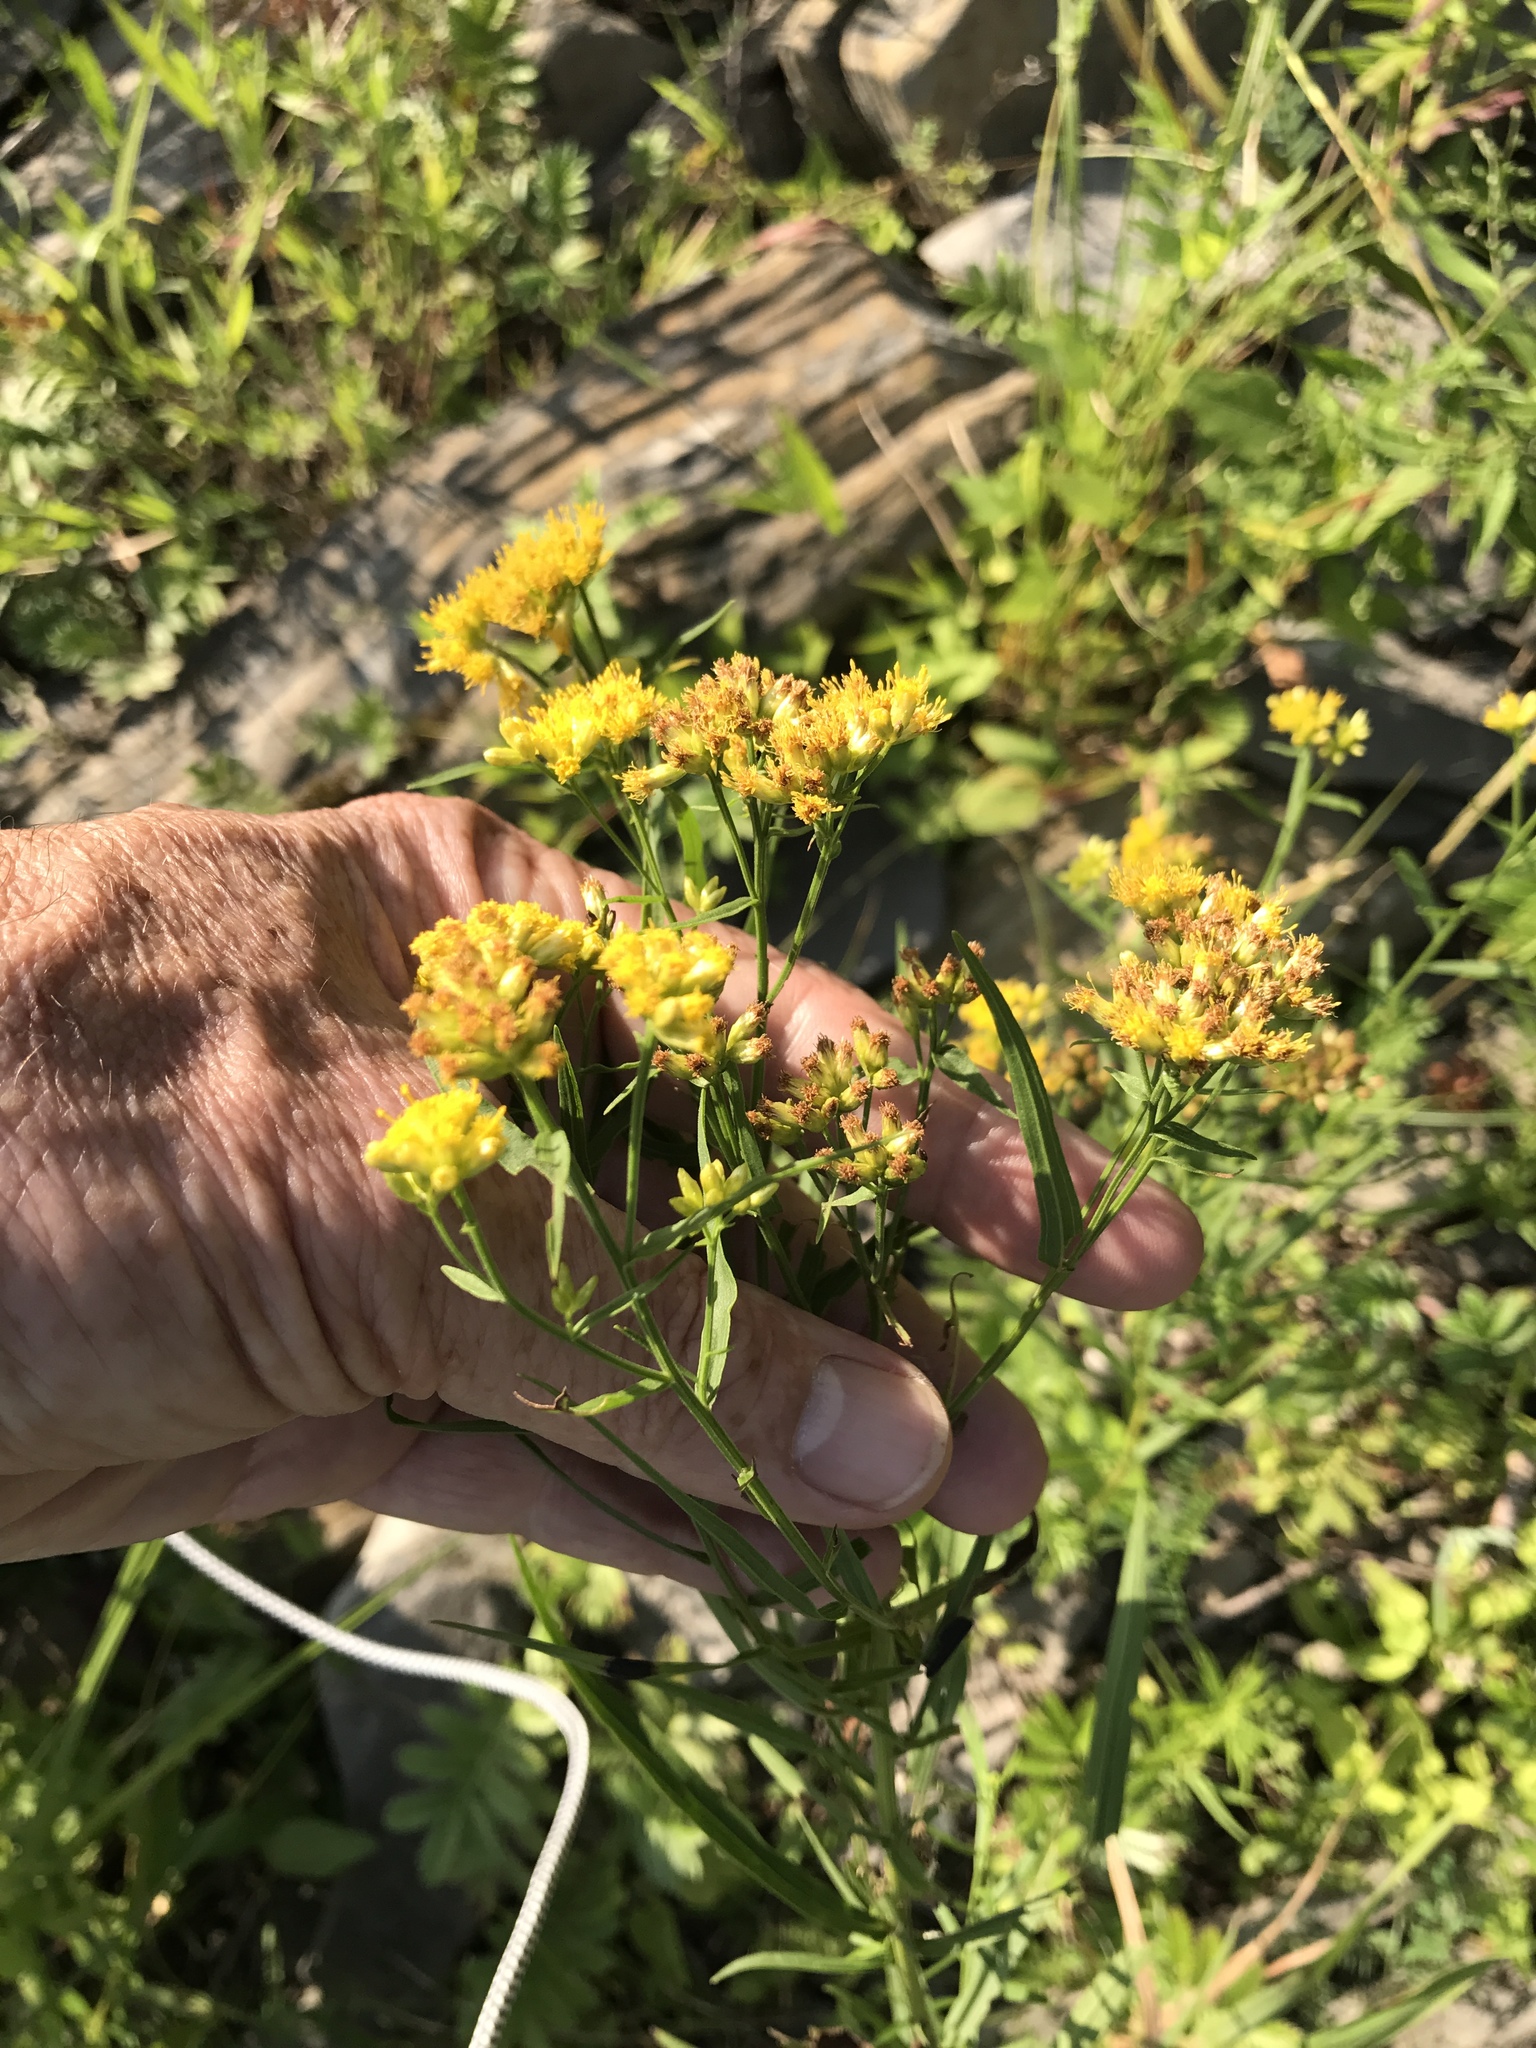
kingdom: Plantae
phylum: Tracheophyta
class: Magnoliopsida
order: Asterales
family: Asteraceae
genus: Euthamia
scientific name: Euthamia graminifolia
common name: Common goldentop
